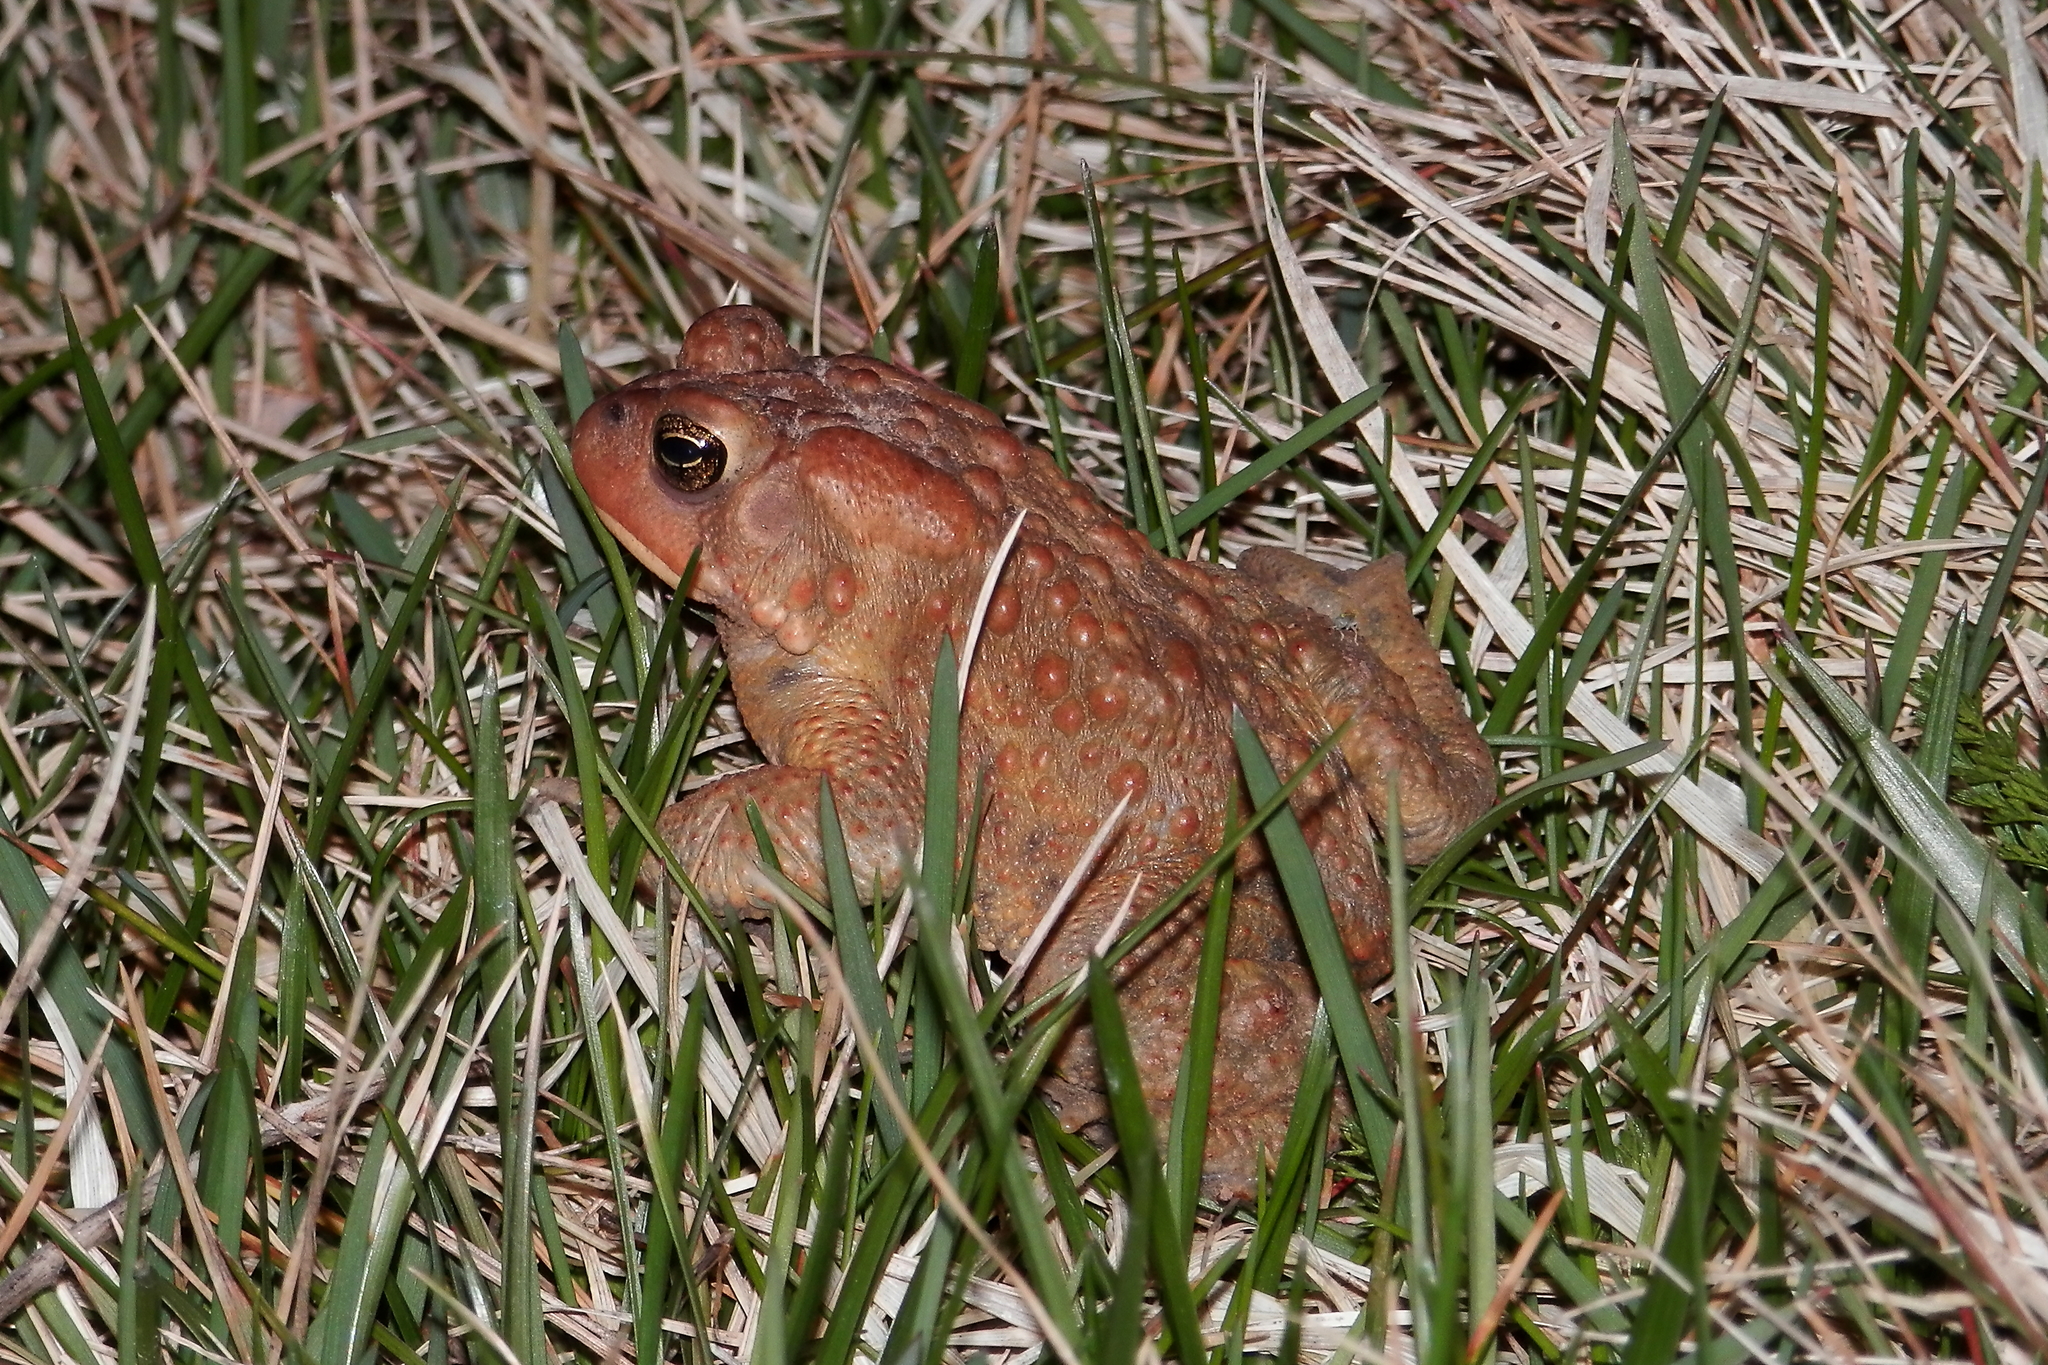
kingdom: Animalia
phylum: Chordata
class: Amphibia
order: Anura
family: Bufonidae
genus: Anaxyrus
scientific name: Anaxyrus americanus
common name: American toad
